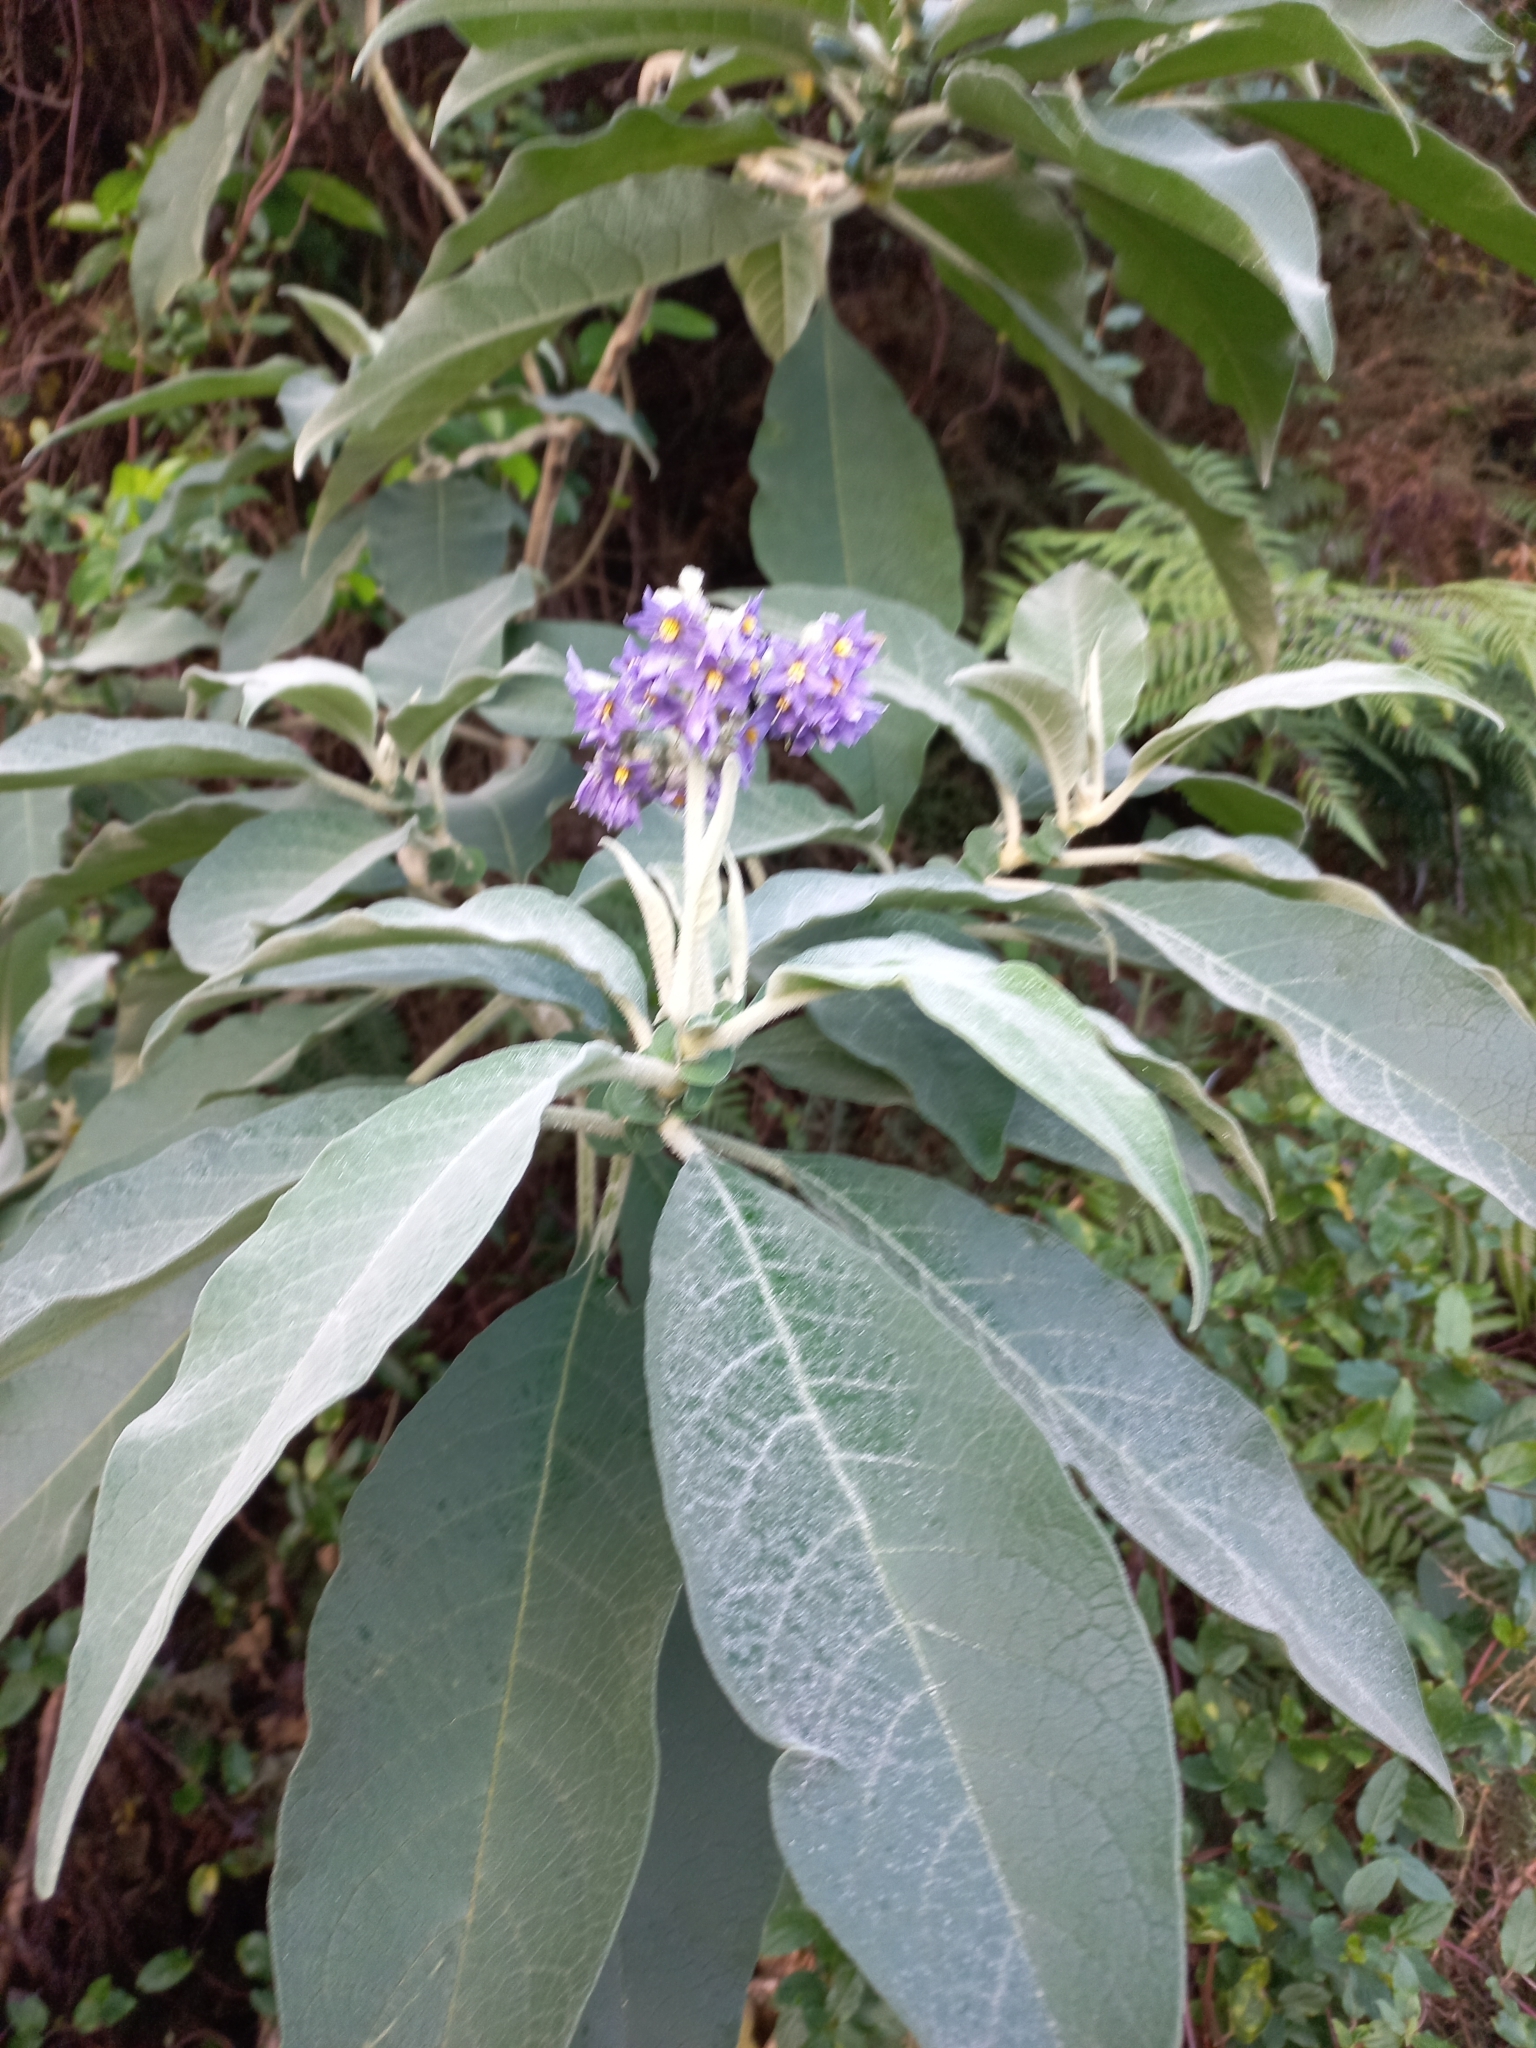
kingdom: Plantae
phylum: Tracheophyta
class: Magnoliopsida
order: Solanales
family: Solanaceae
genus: Solanum
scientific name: Solanum mauritianum
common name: Earleaf nightshade
